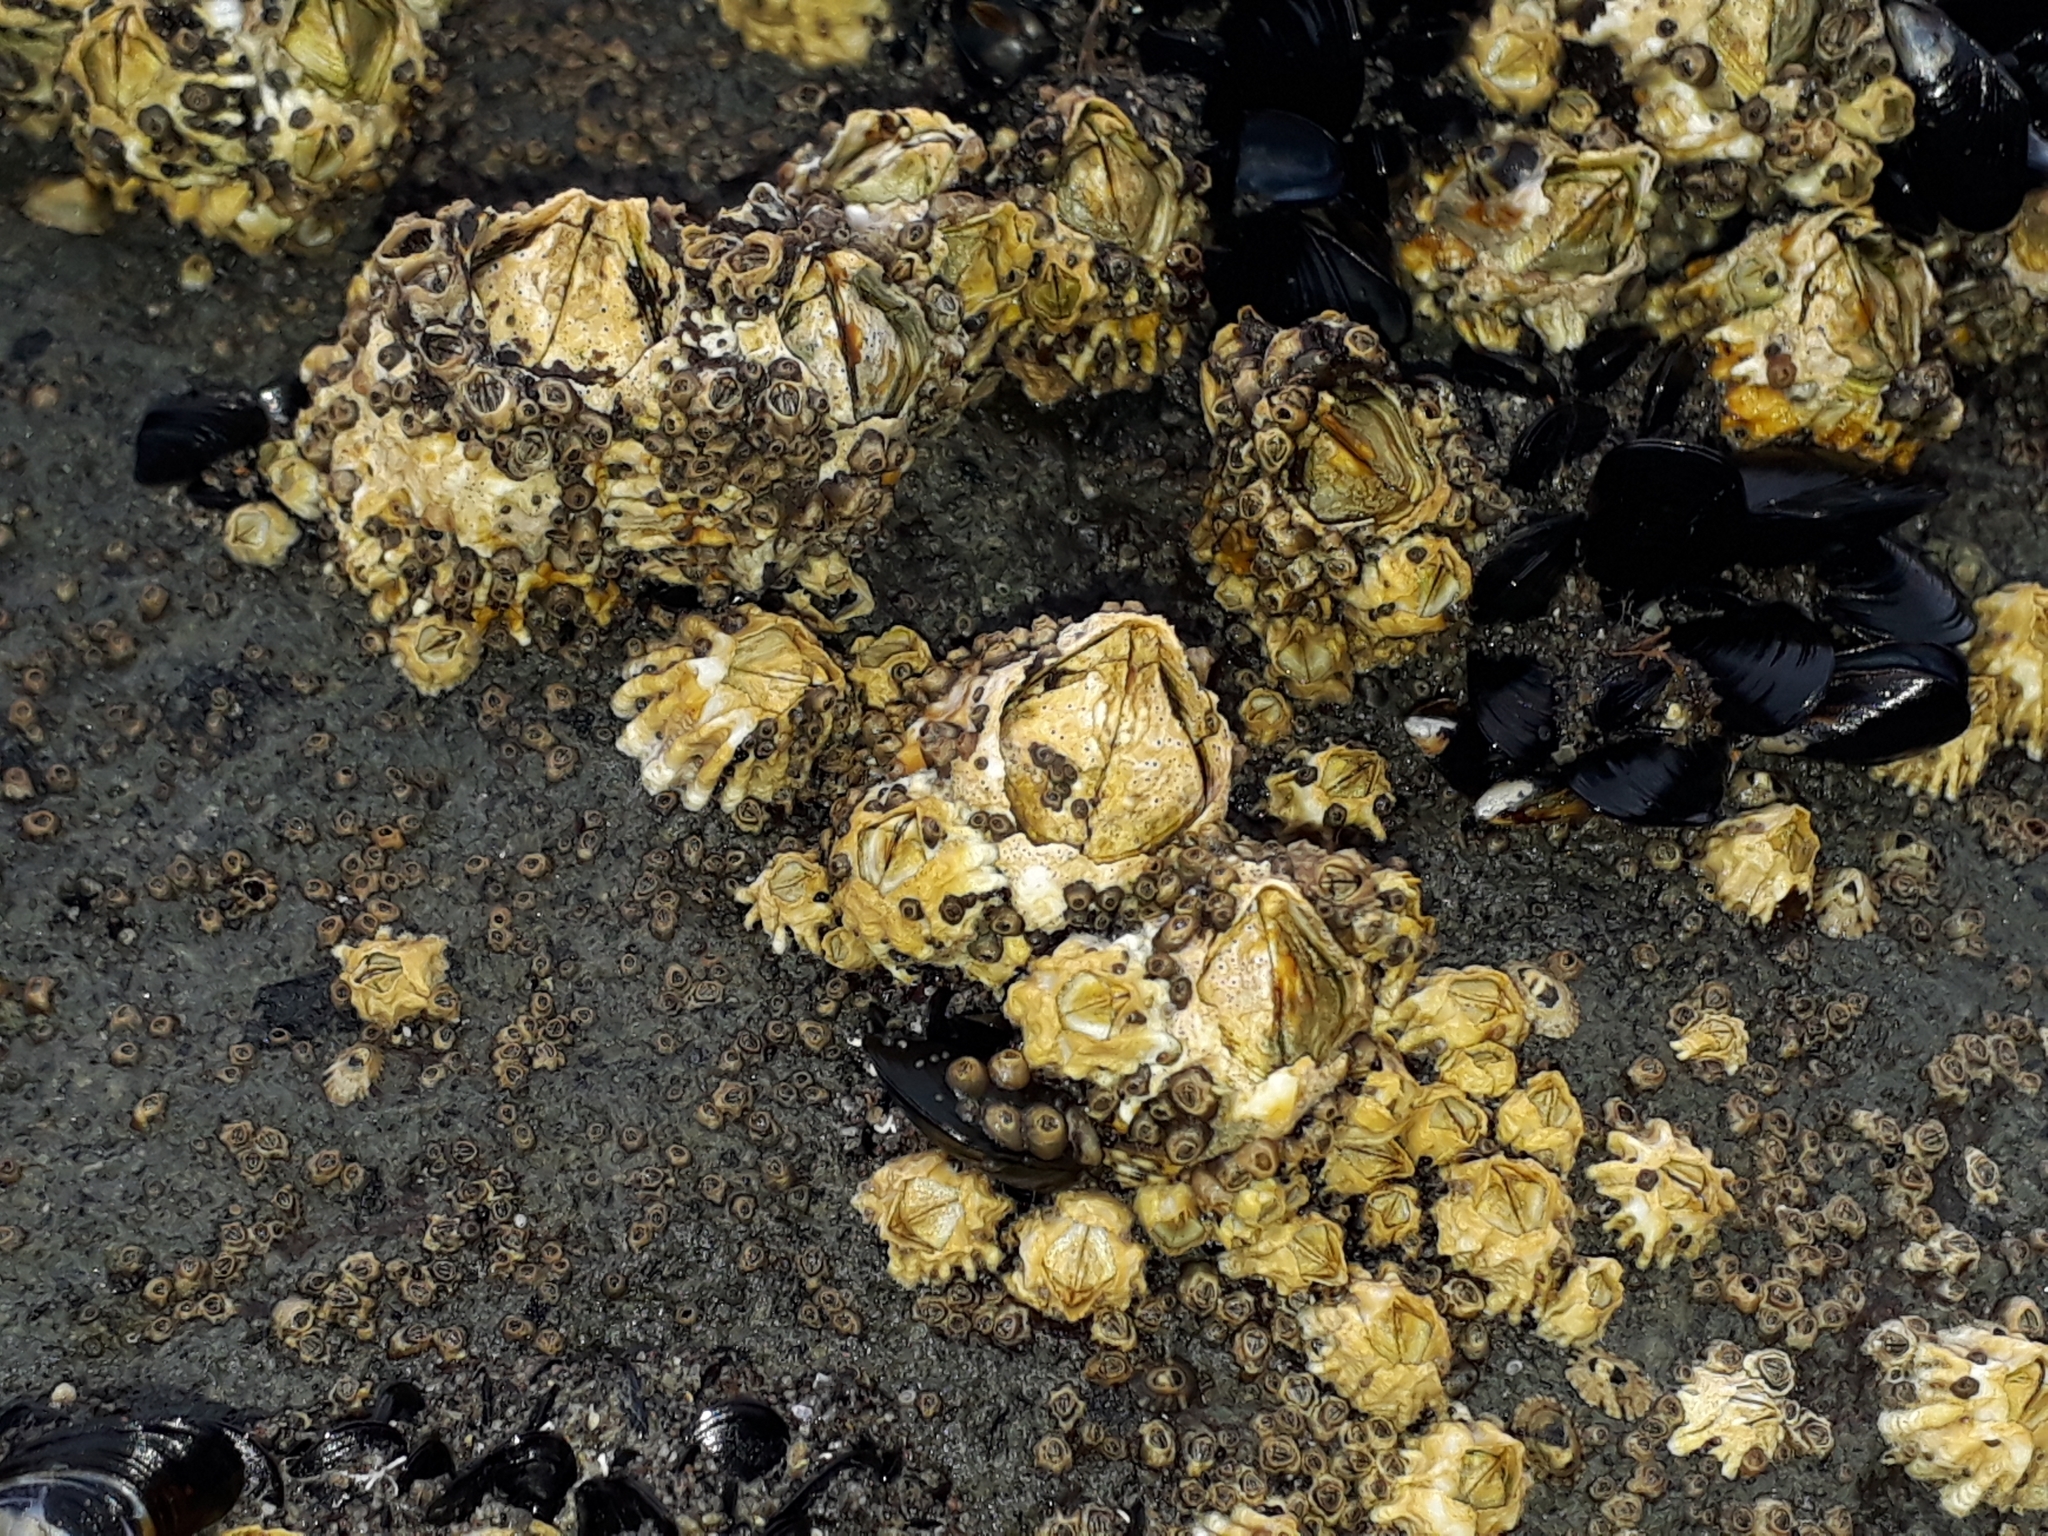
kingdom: Animalia
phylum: Arthropoda
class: Maxillopoda
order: Sessilia
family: Tetraclitidae
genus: Epopella
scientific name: Epopella plicata
